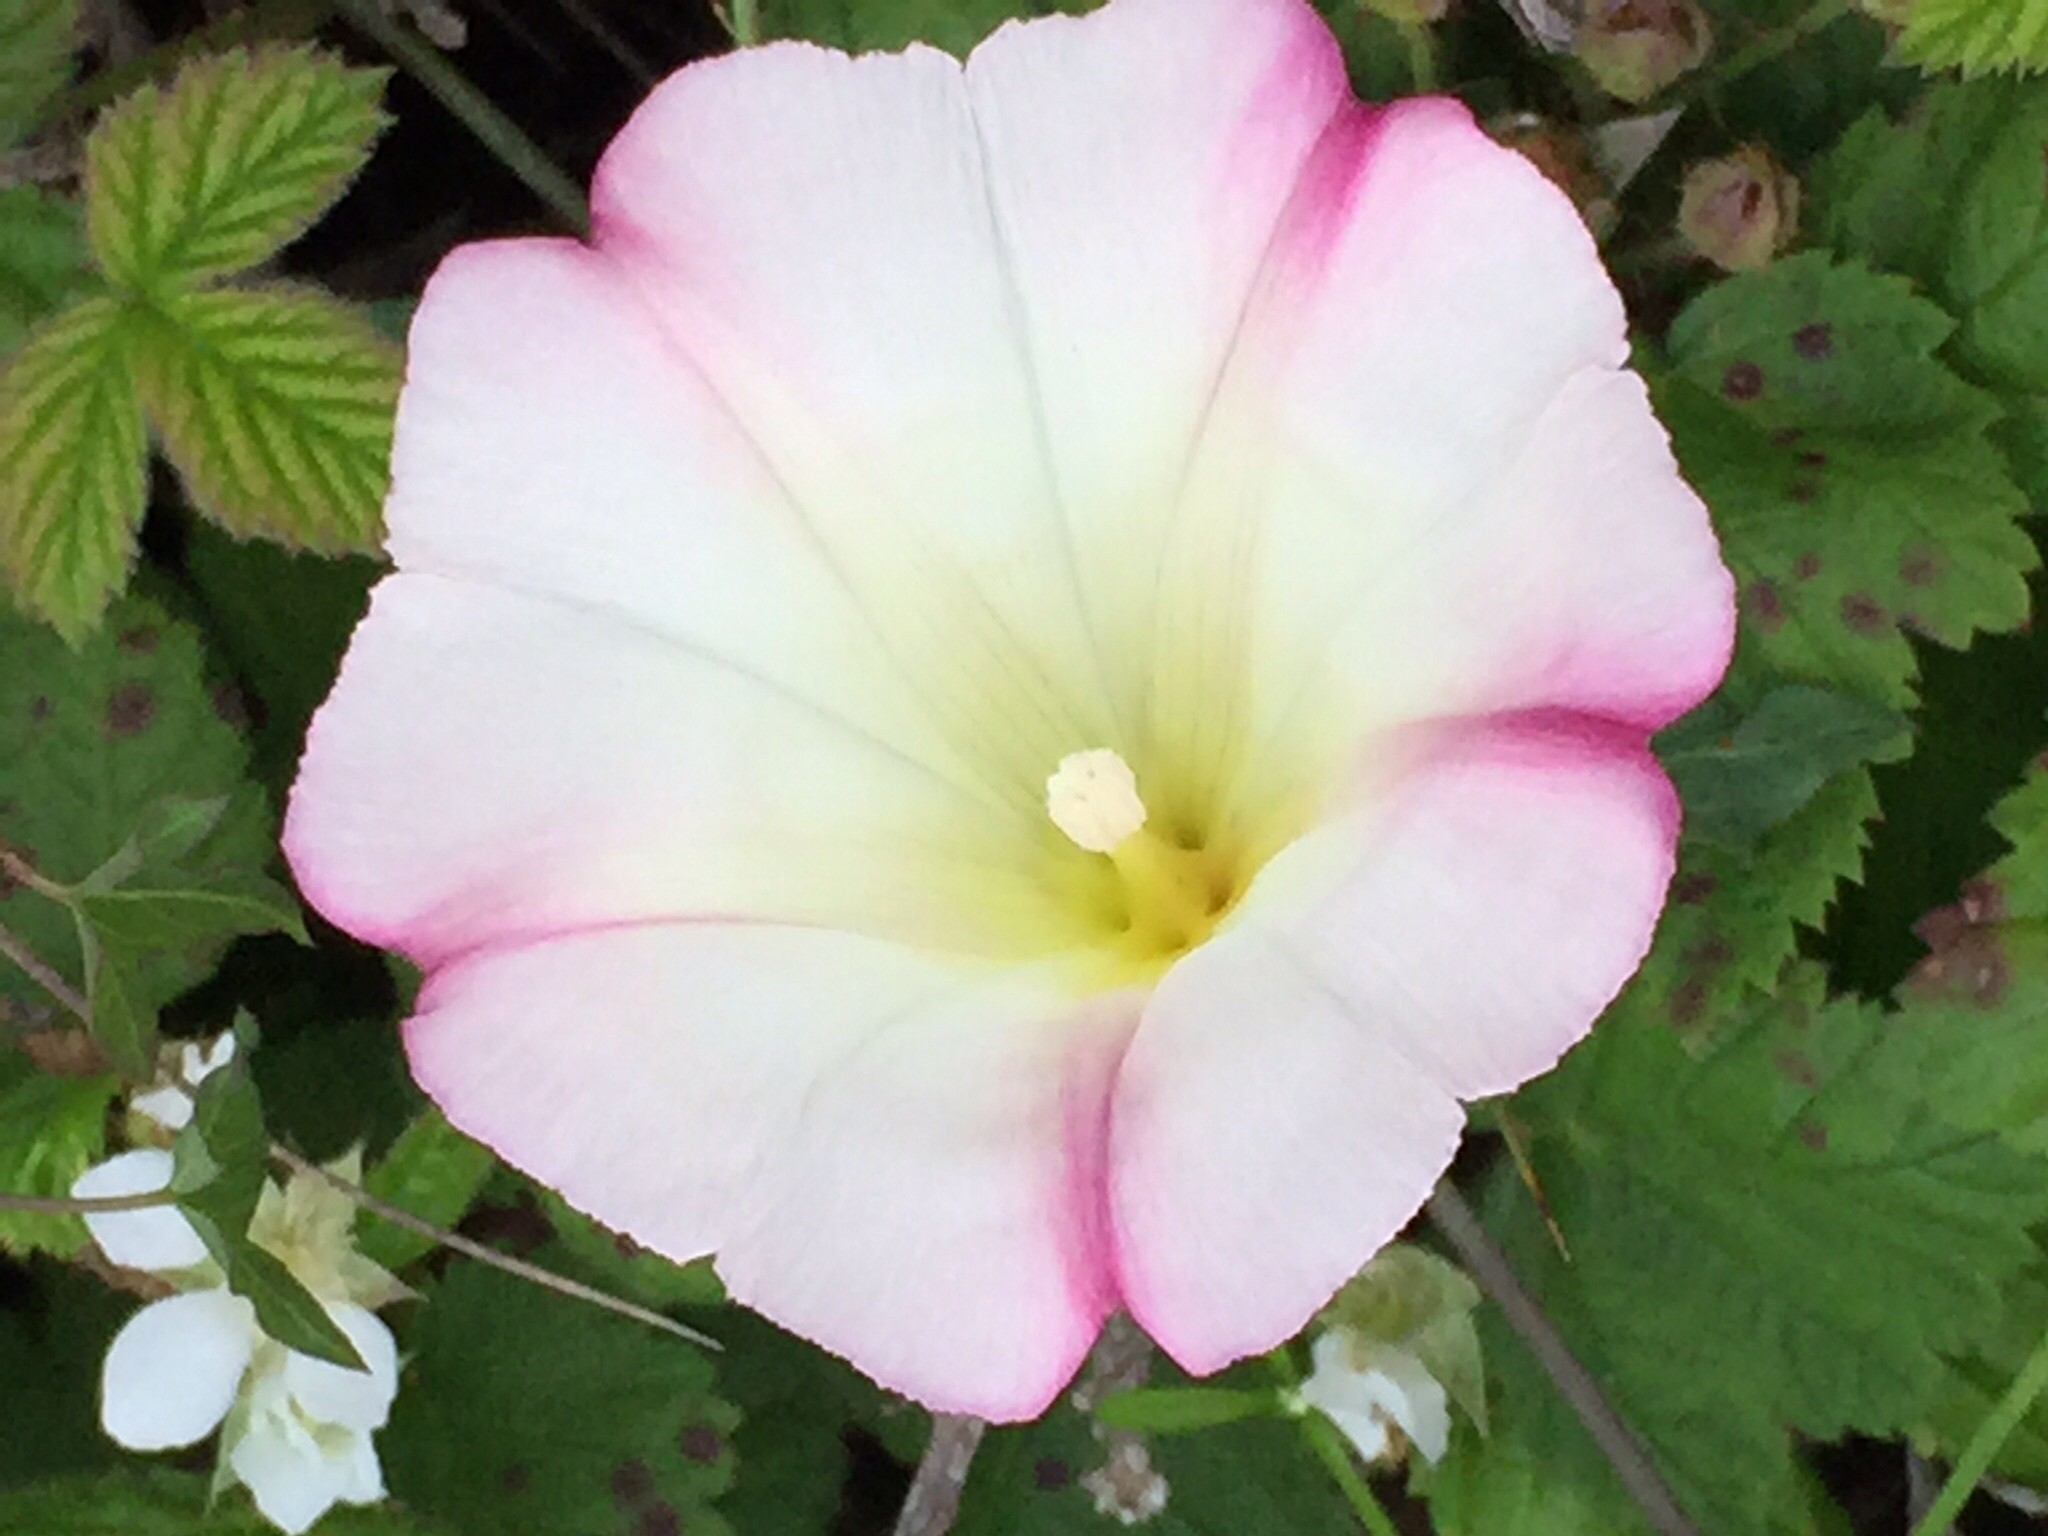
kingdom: Plantae
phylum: Tracheophyta
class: Magnoliopsida
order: Solanales
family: Convolvulaceae
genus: Calystegia
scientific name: Calystegia purpurata
